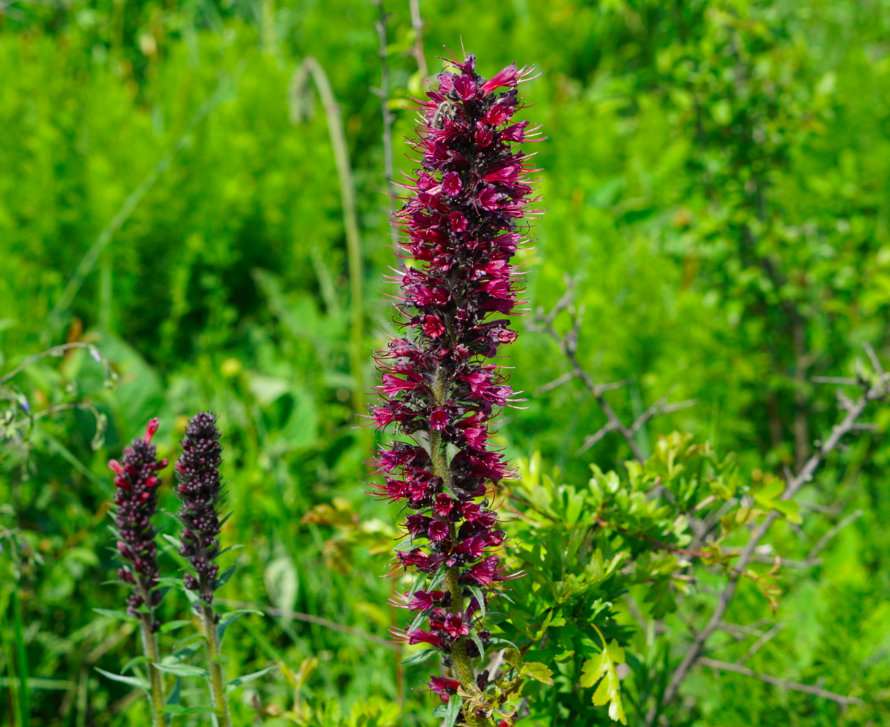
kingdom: Plantae
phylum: Tracheophyta
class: Magnoliopsida
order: Boraginales
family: Boraginaceae
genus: Pontechium
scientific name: Pontechium maculatum
